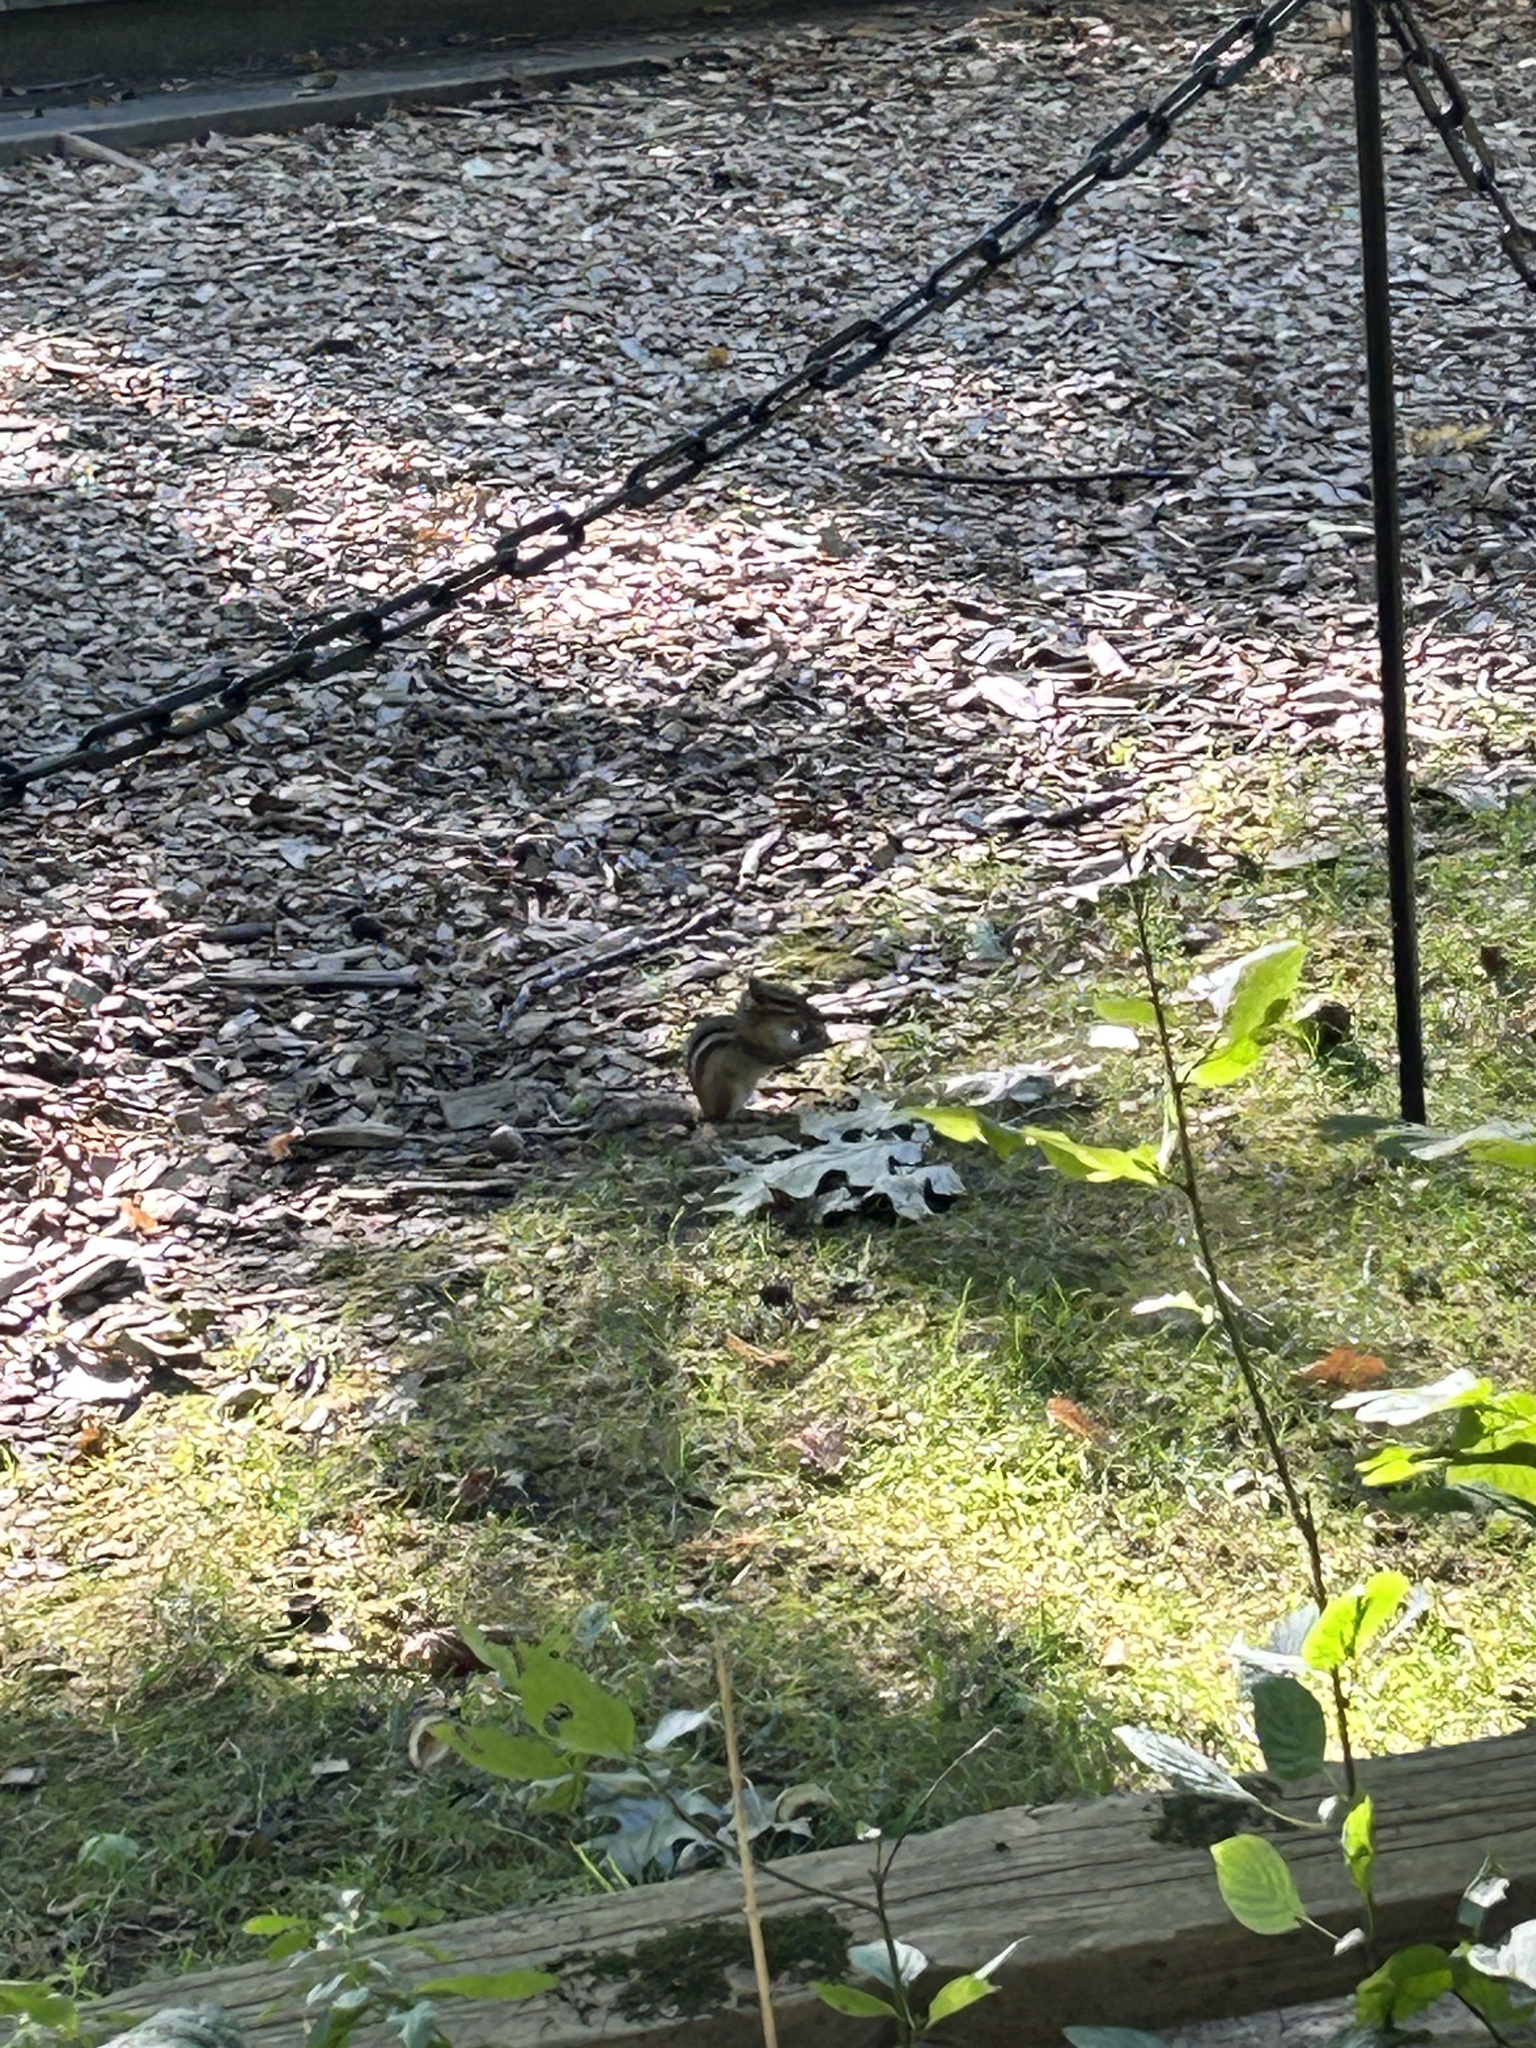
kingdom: Animalia
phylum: Chordata
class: Mammalia
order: Rodentia
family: Sciuridae
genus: Tamias
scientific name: Tamias striatus
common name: Eastern chipmunk
